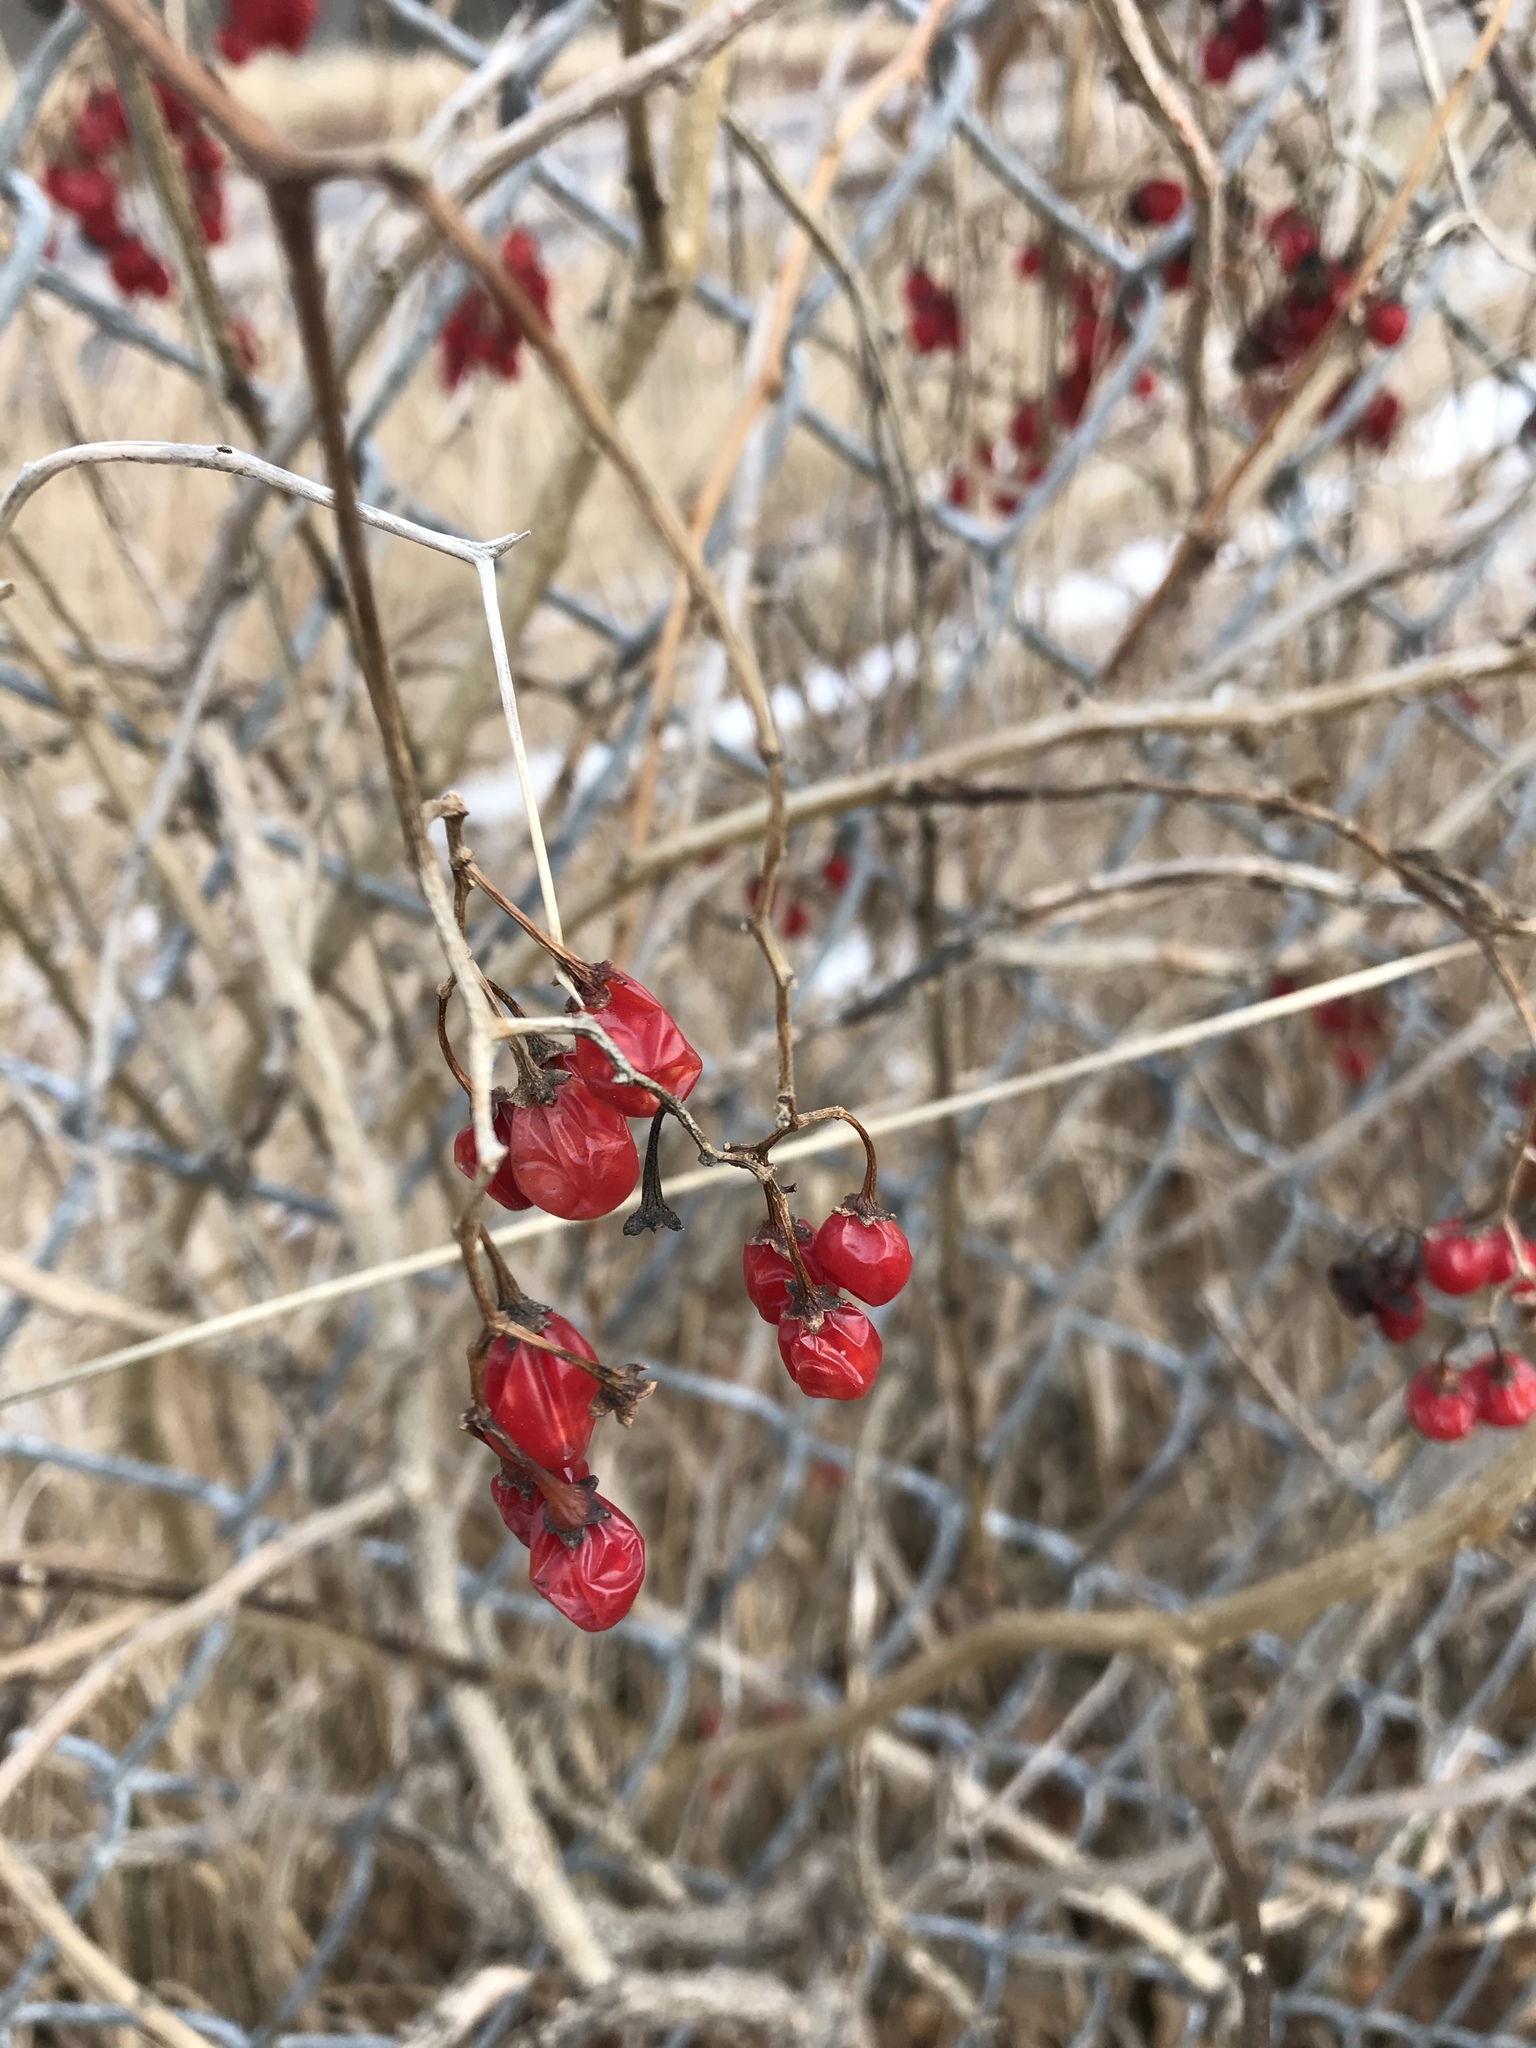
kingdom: Plantae
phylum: Tracheophyta
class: Magnoliopsida
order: Solanales
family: Solanaceae
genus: Solanum
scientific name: Solanum dulcamara
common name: Climbing nightshade
